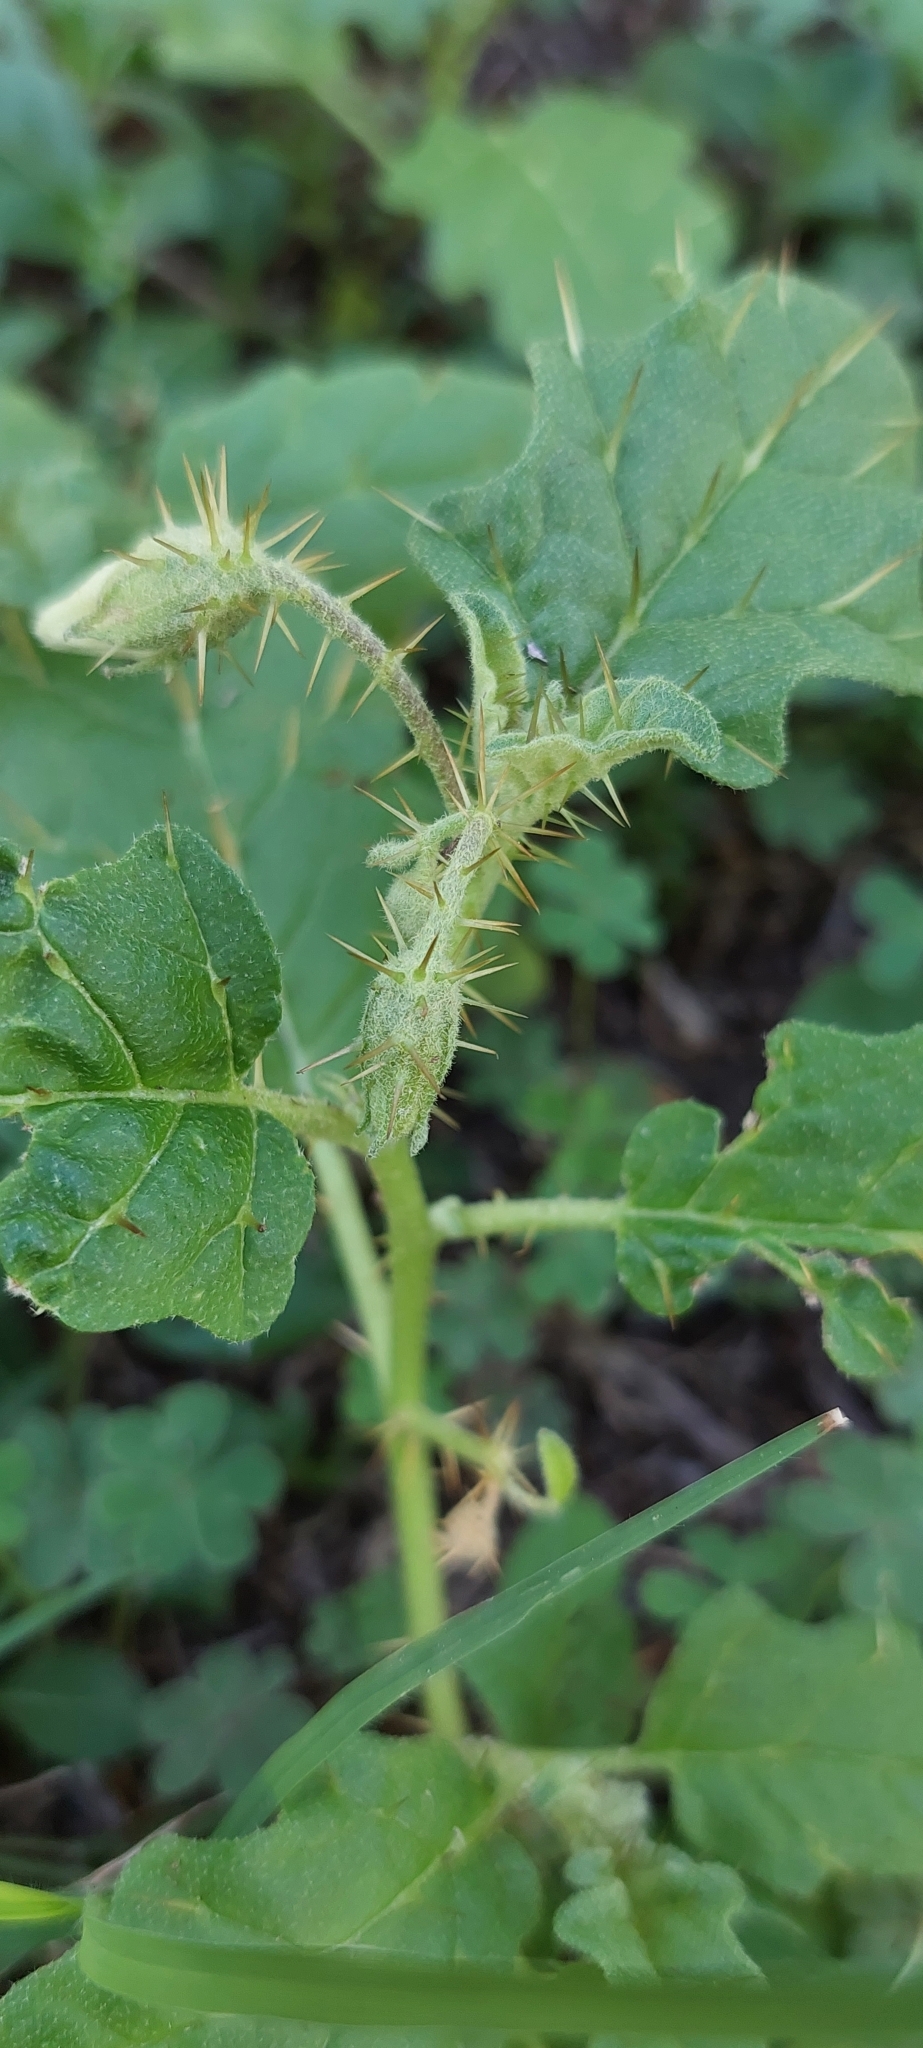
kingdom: Plantae
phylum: Tracheophyta
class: Magnoliopsida
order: Solanales
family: Solanaceae
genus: Solanum
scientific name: Solanum juvenale
